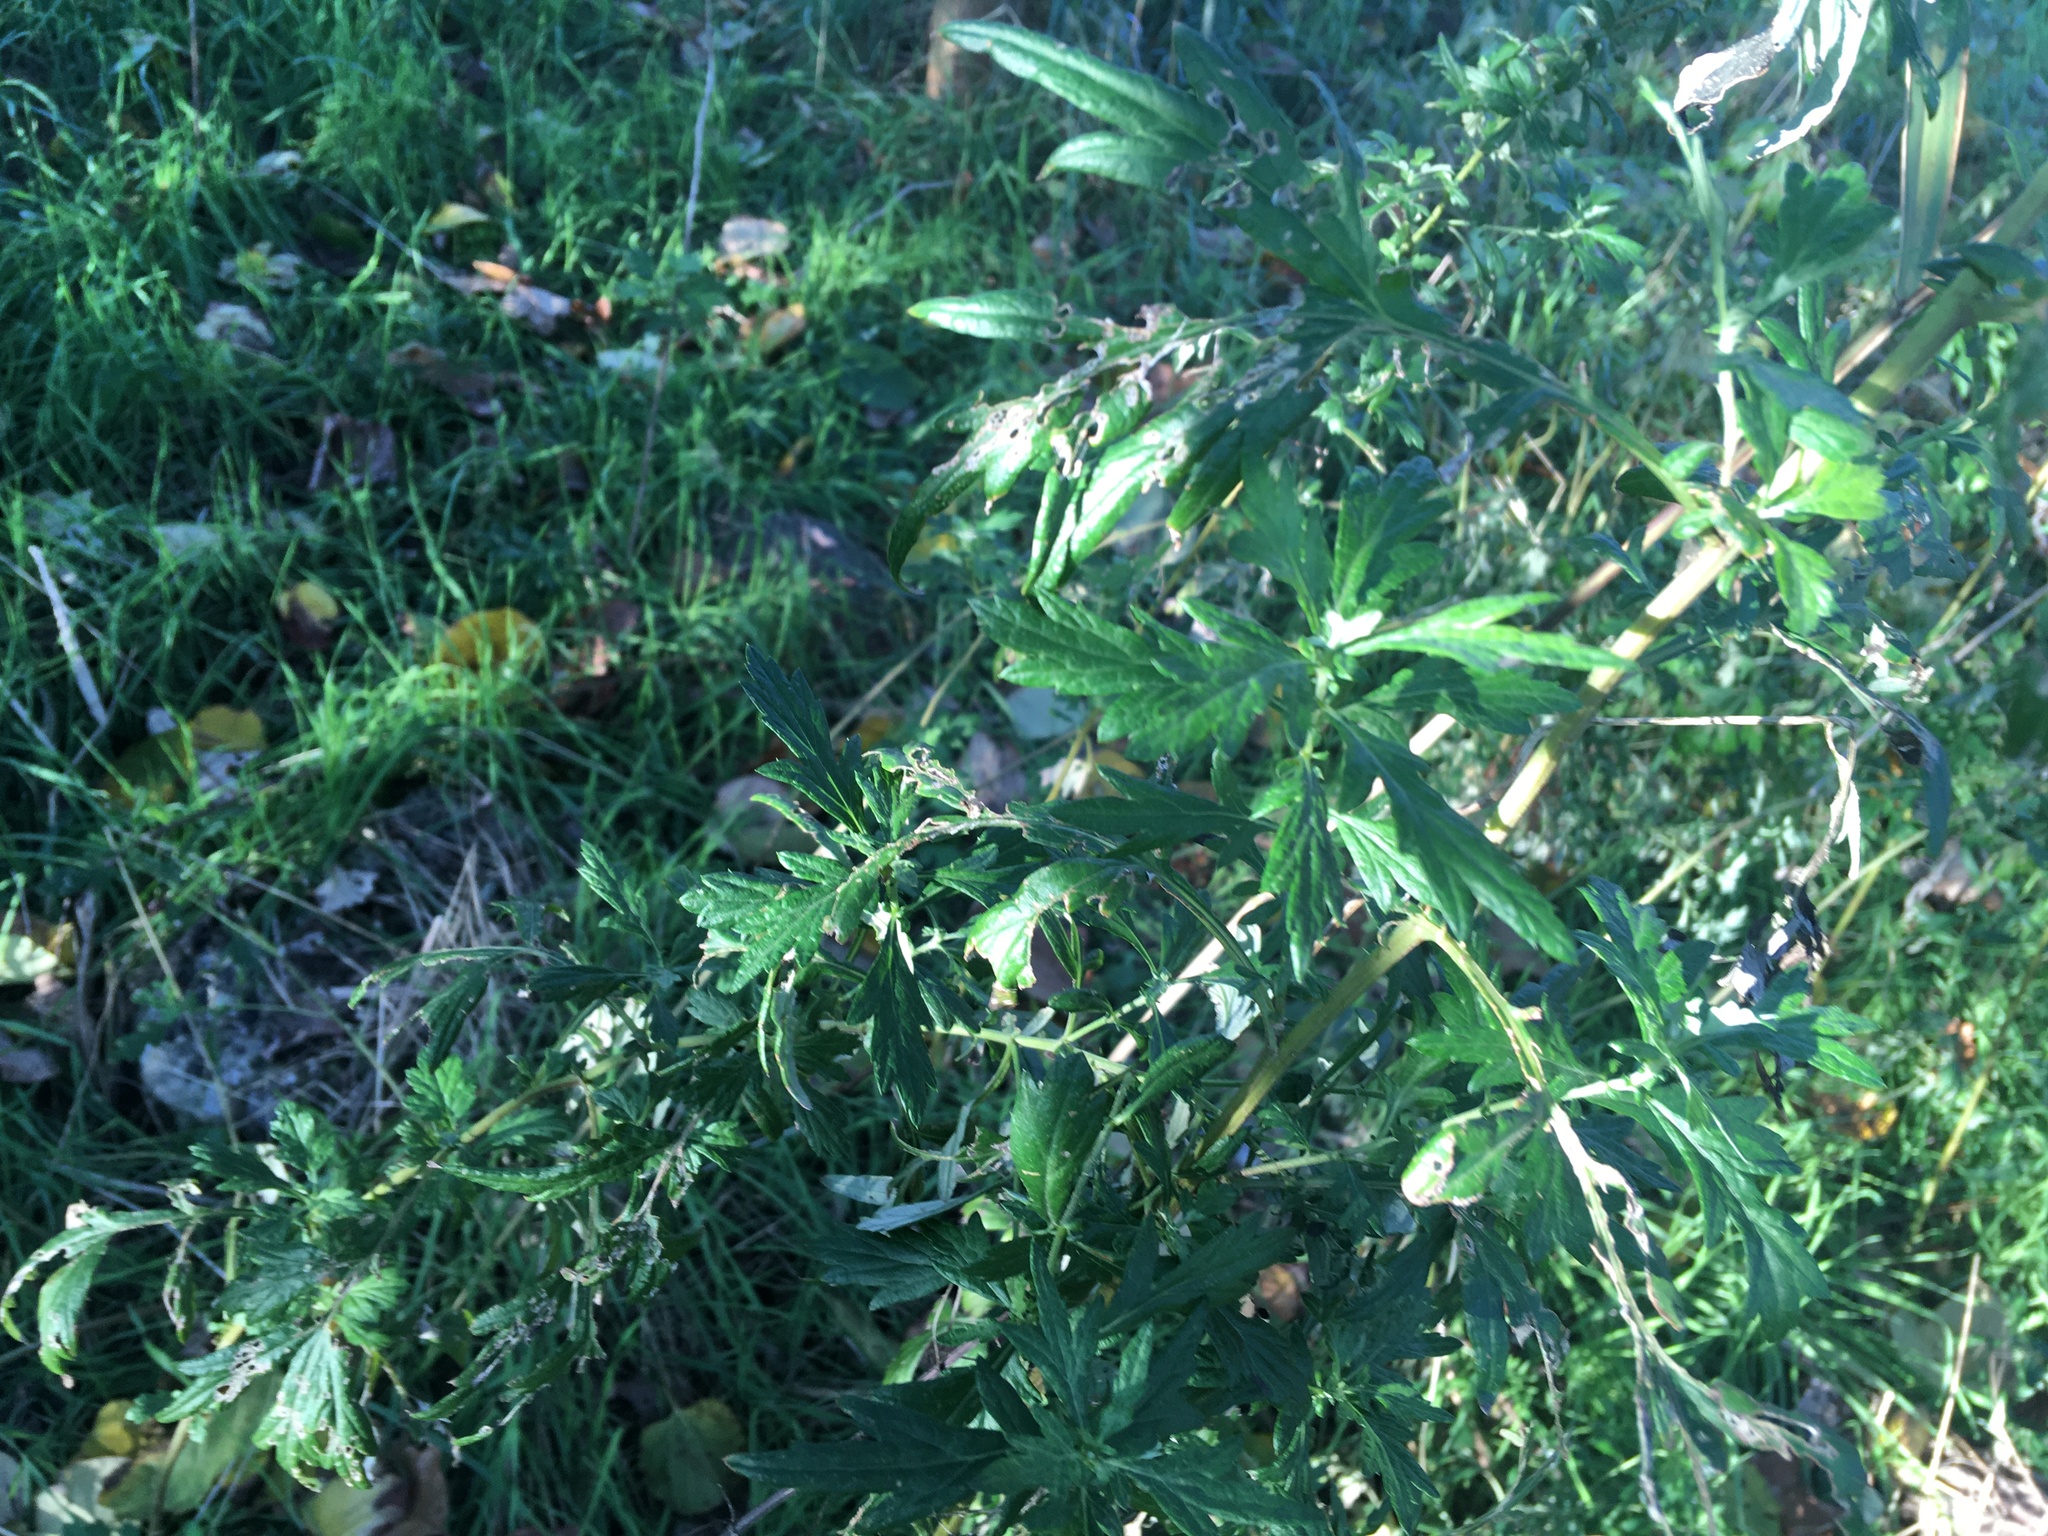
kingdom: Plantae
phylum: Tracheophyta
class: Magnoliopsida
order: Asterales
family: Asteraceae
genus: Artemisia
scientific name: Artemisia vulgaris
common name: Mugwort
